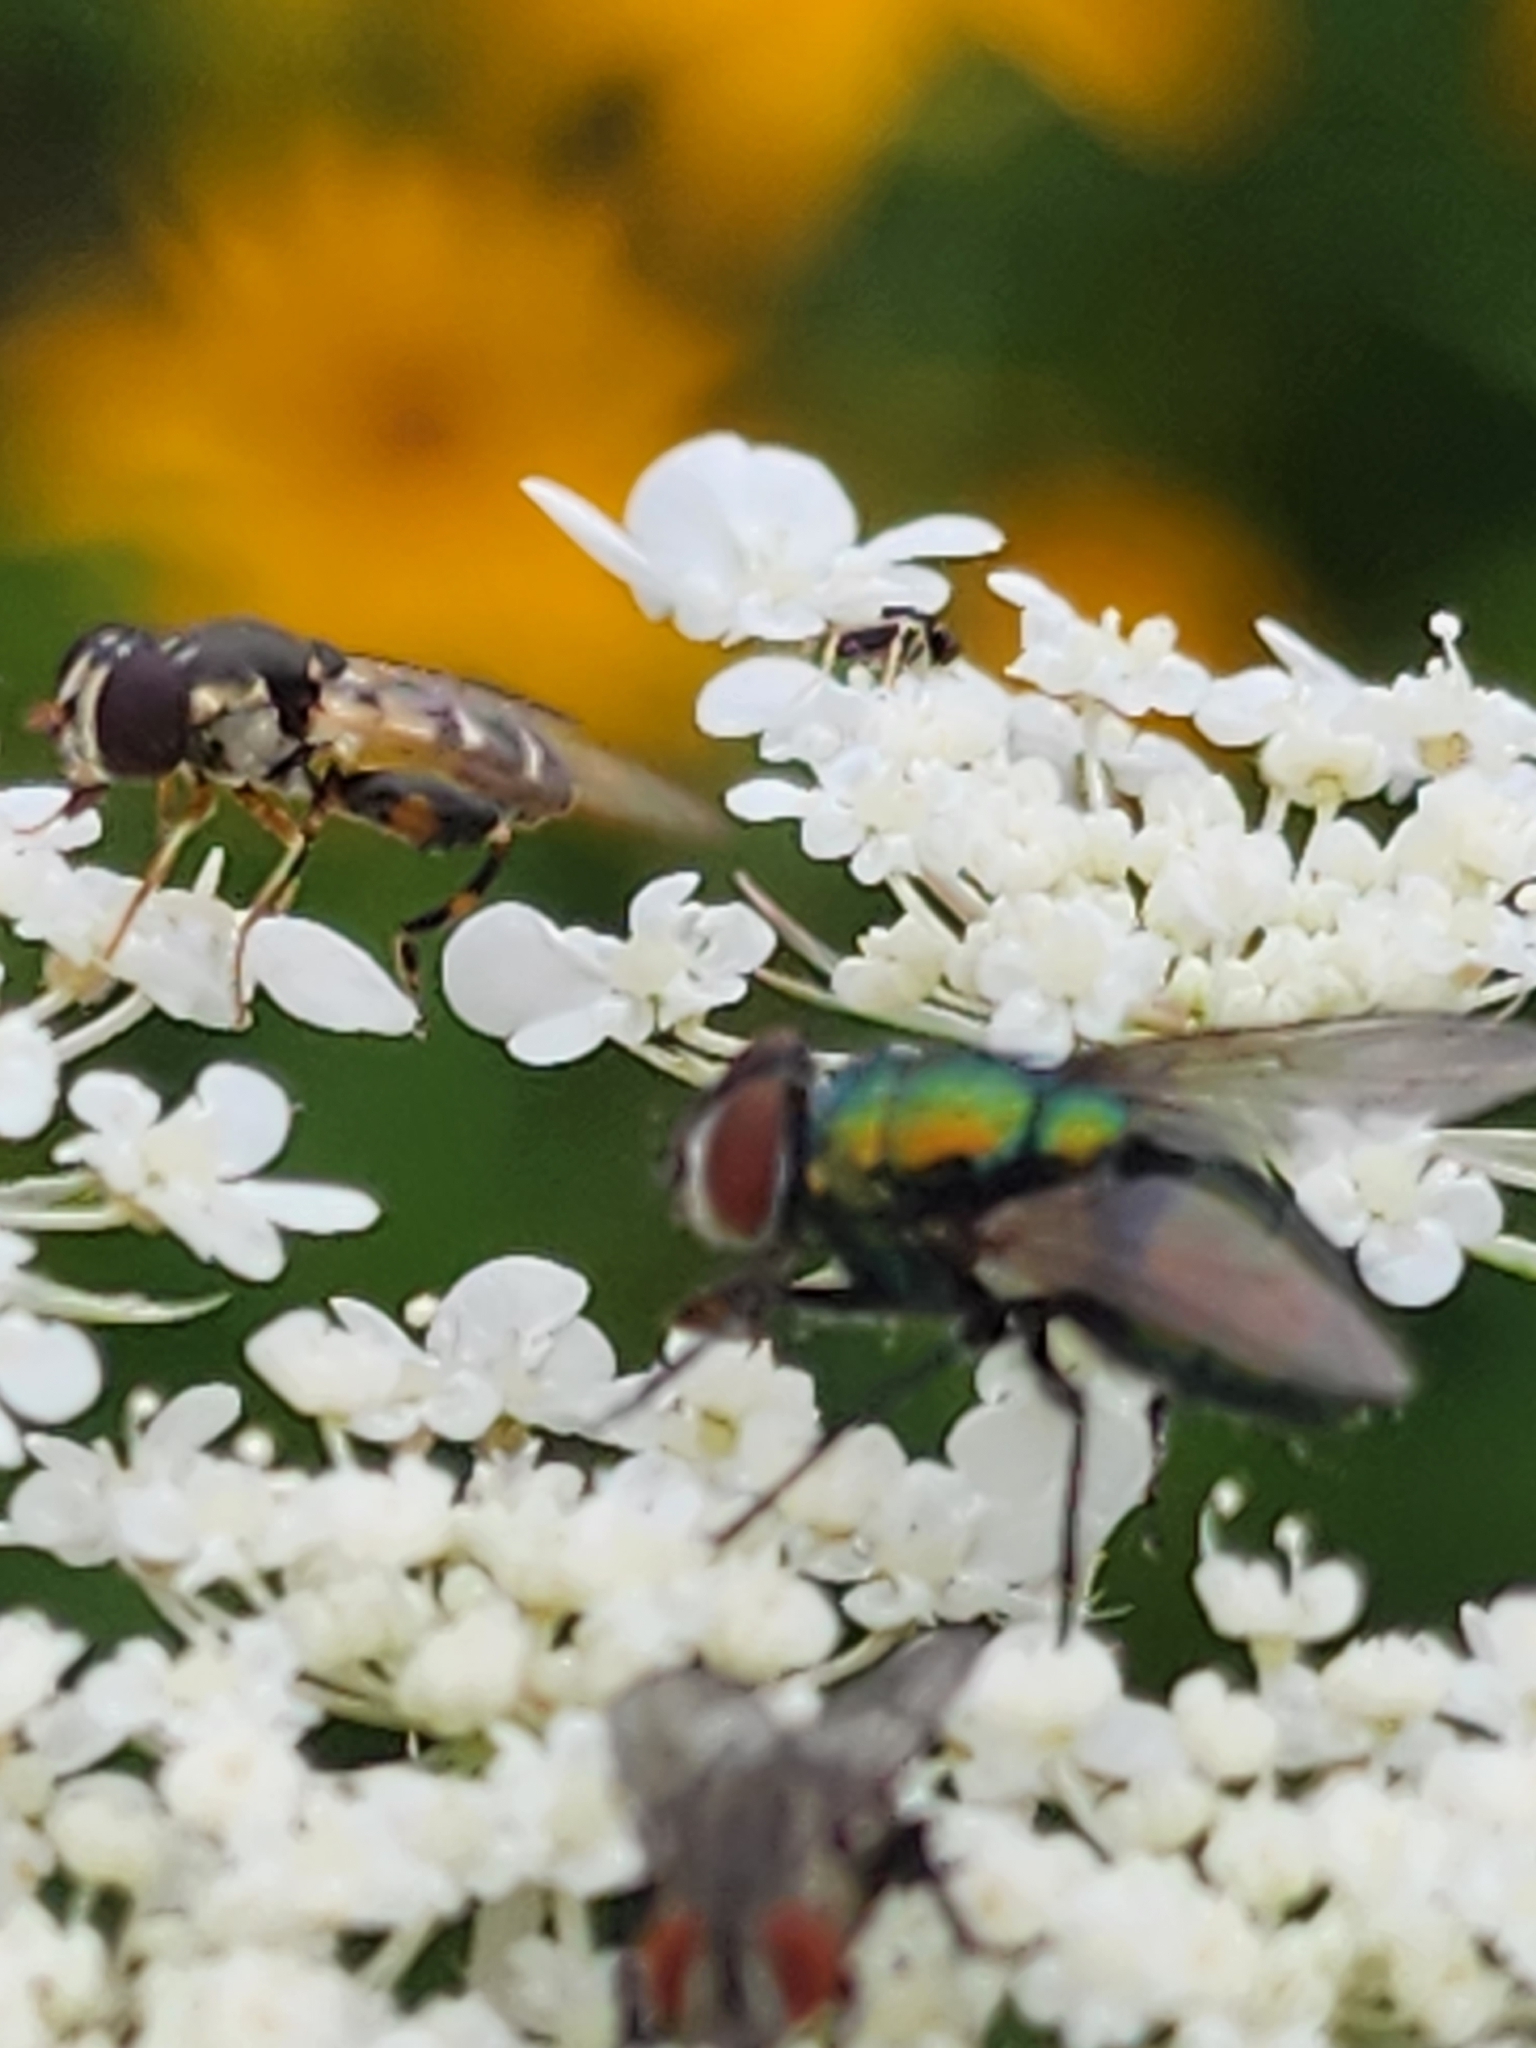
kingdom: Animalia
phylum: Arthropoda
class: Insecta
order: Diptera
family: Syrphidae
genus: Syritta
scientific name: Syritta pipiens
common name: Hover fly
